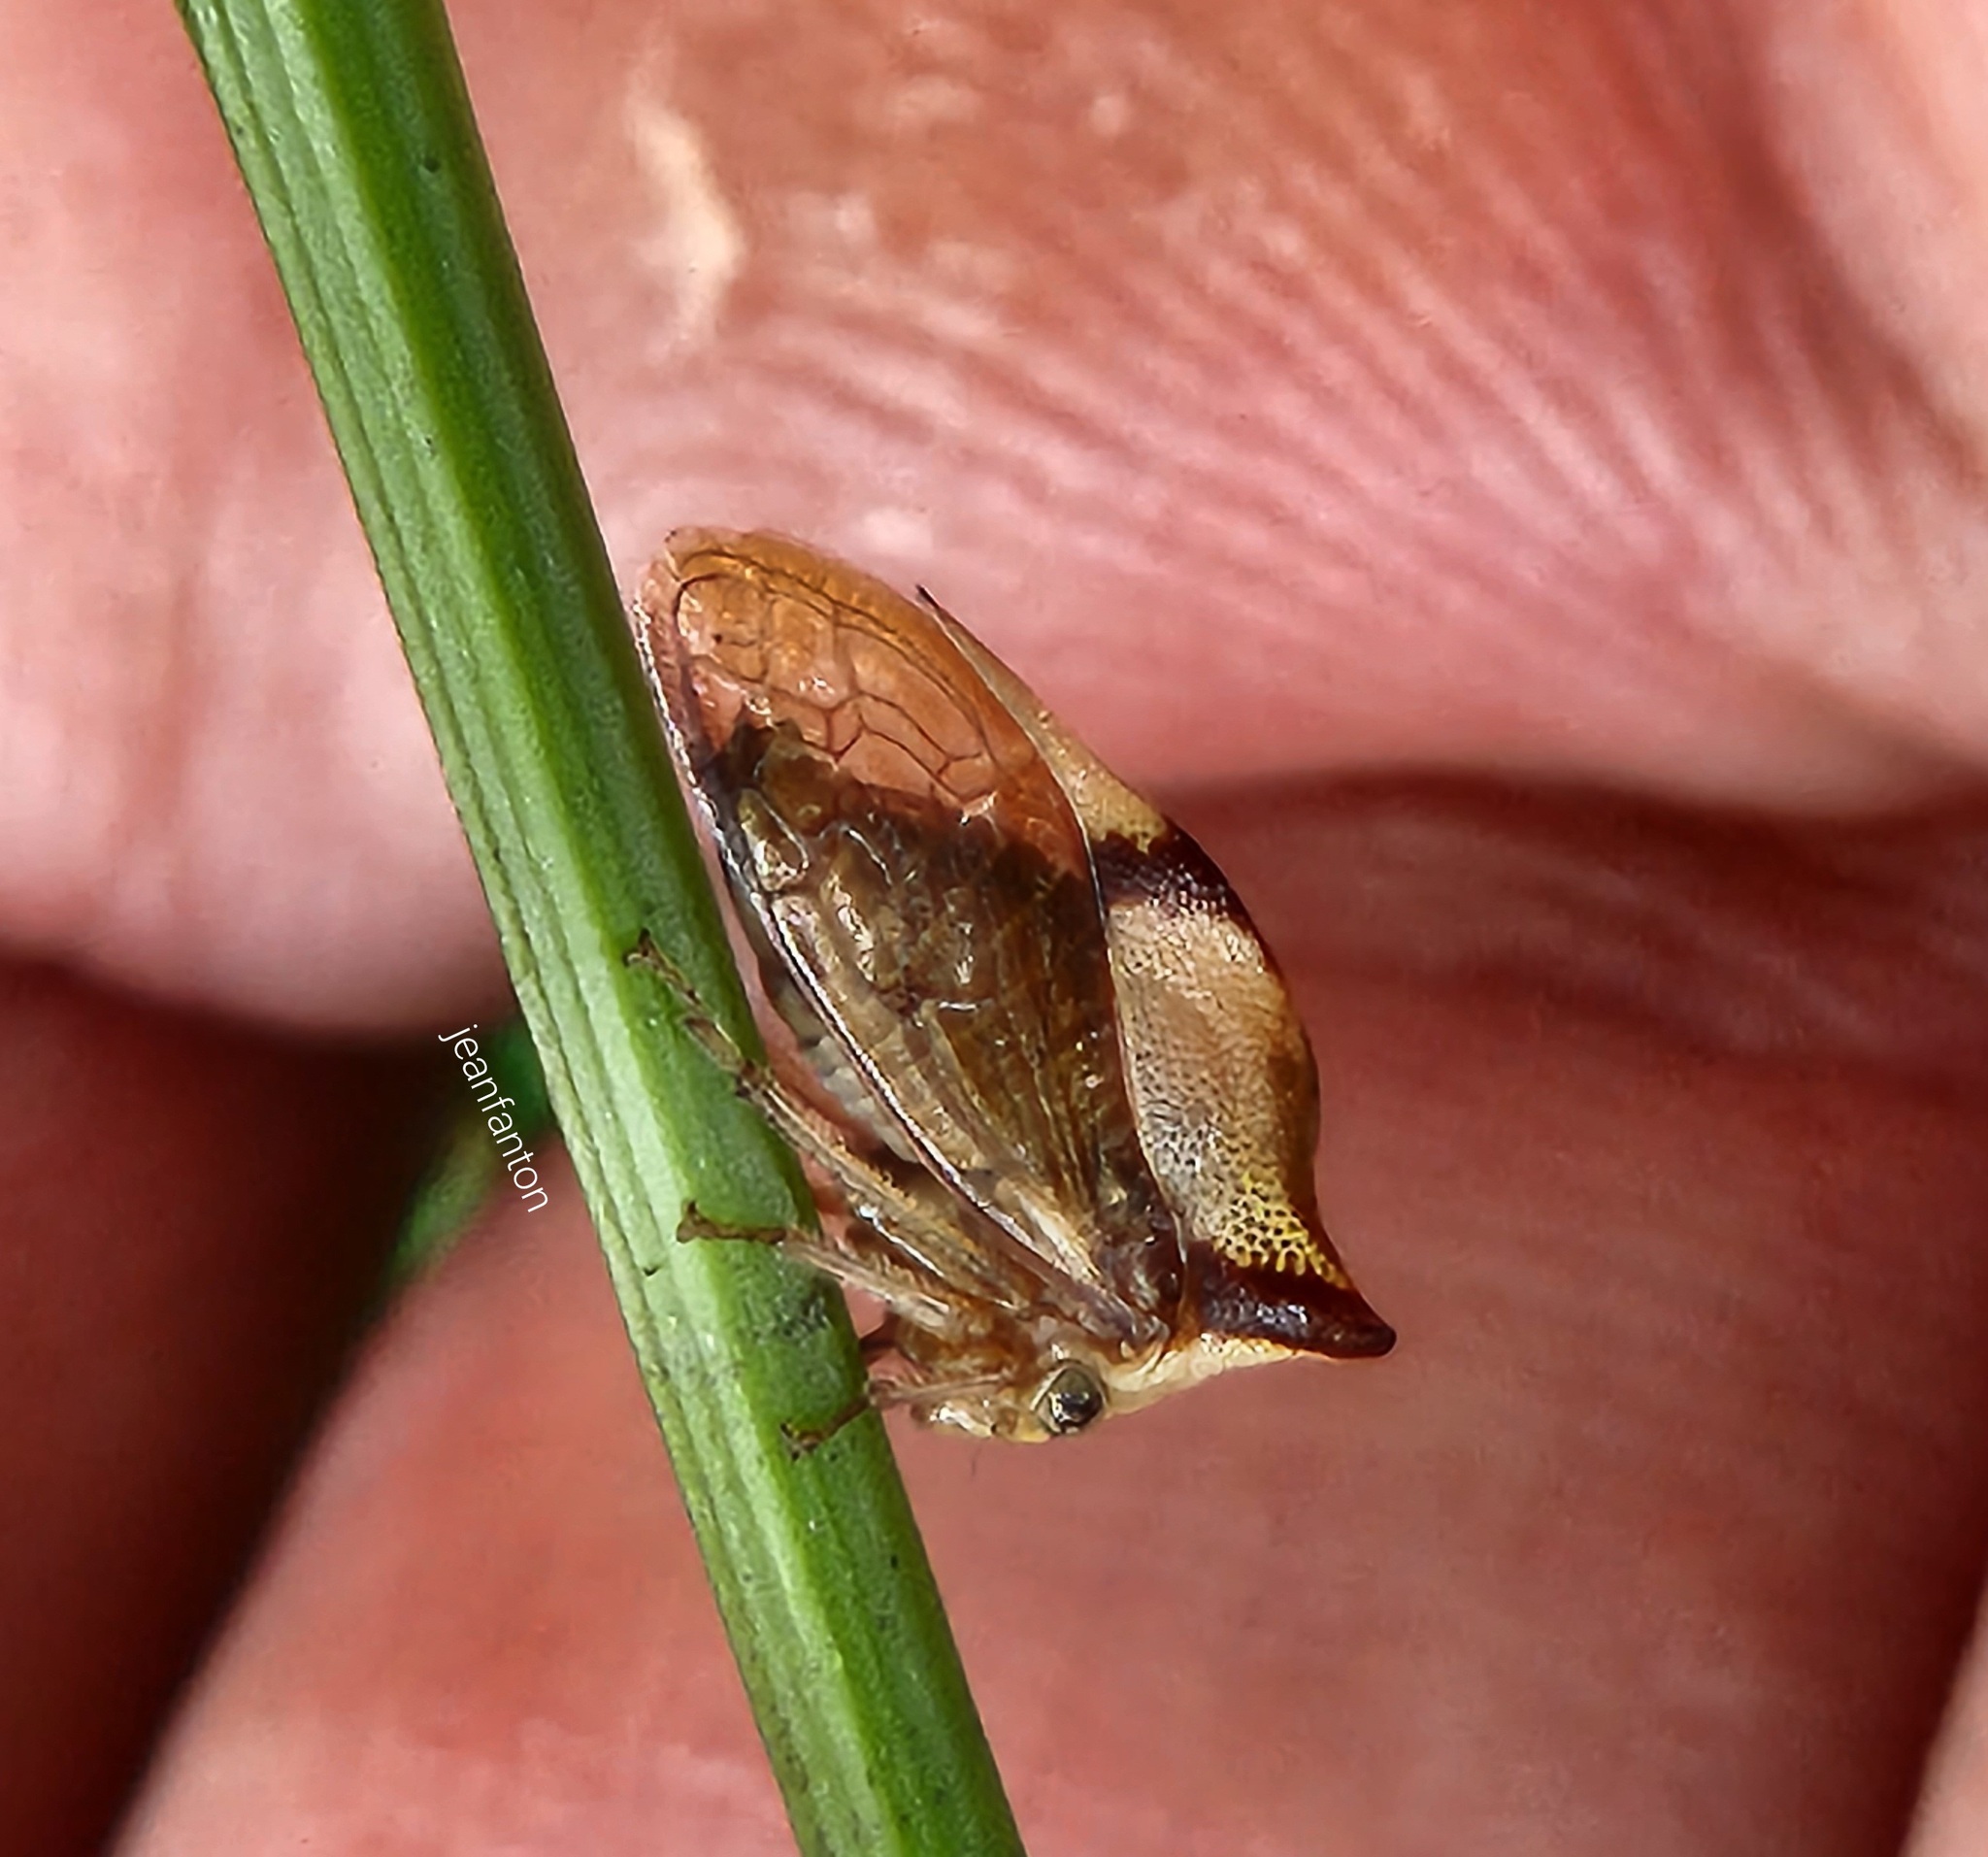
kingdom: Animalia
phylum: Arthropoda
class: Insecta
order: Hemiptera
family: Membracidae
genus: Ceresa
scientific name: Ceresa paulistana
